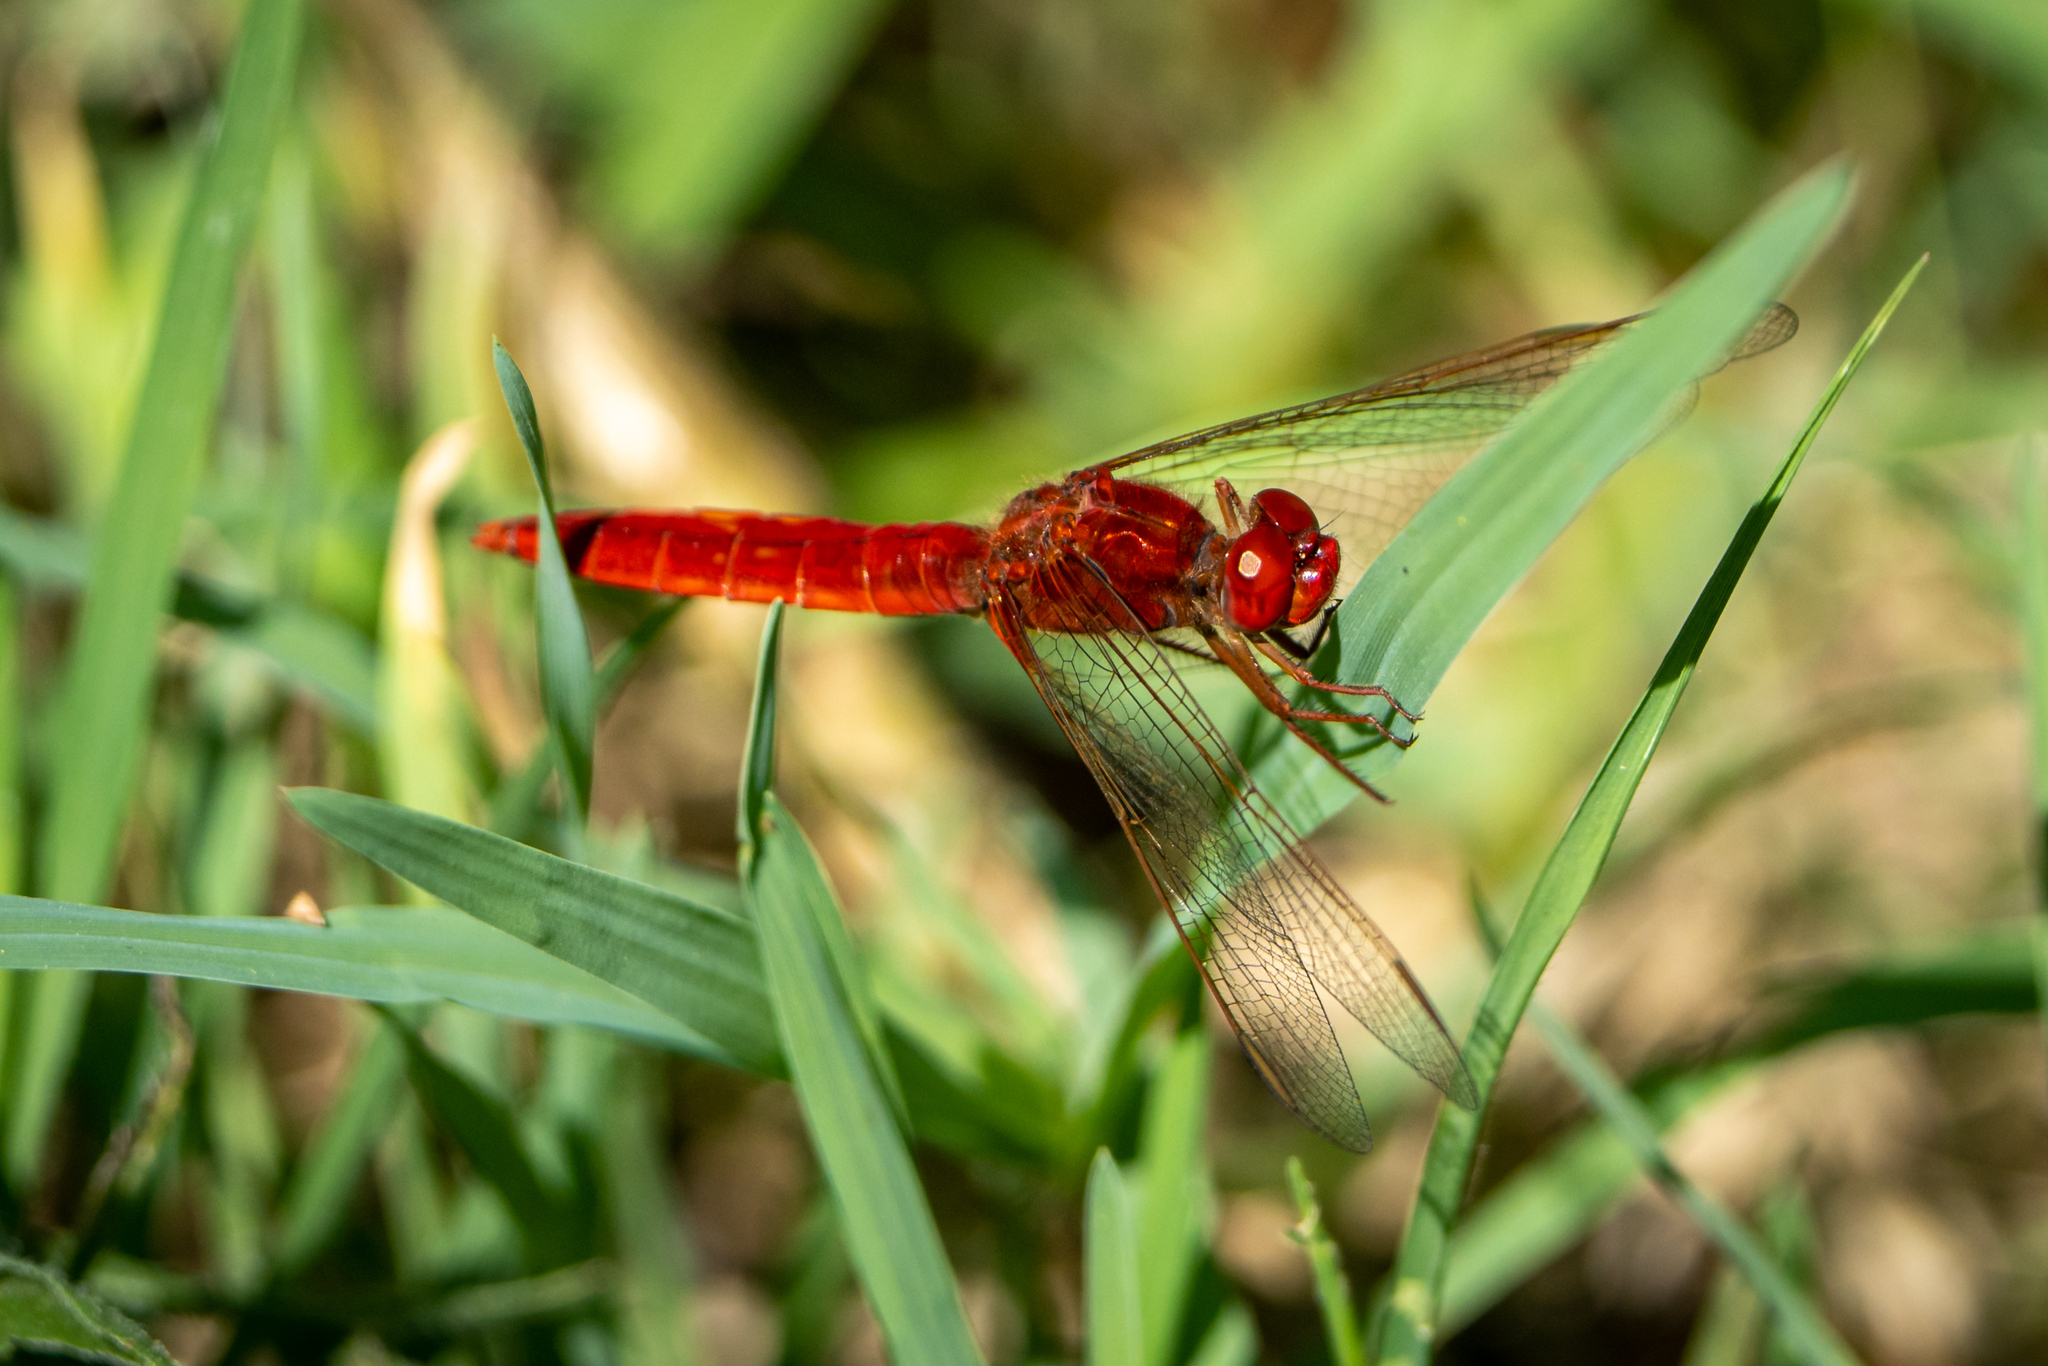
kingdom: Animalia
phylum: Arthropoda
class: Insecta
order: Odonata
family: Libellulidae
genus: Crocothemis
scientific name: Crocothemis erythraea
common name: Scarlet dragonfly
